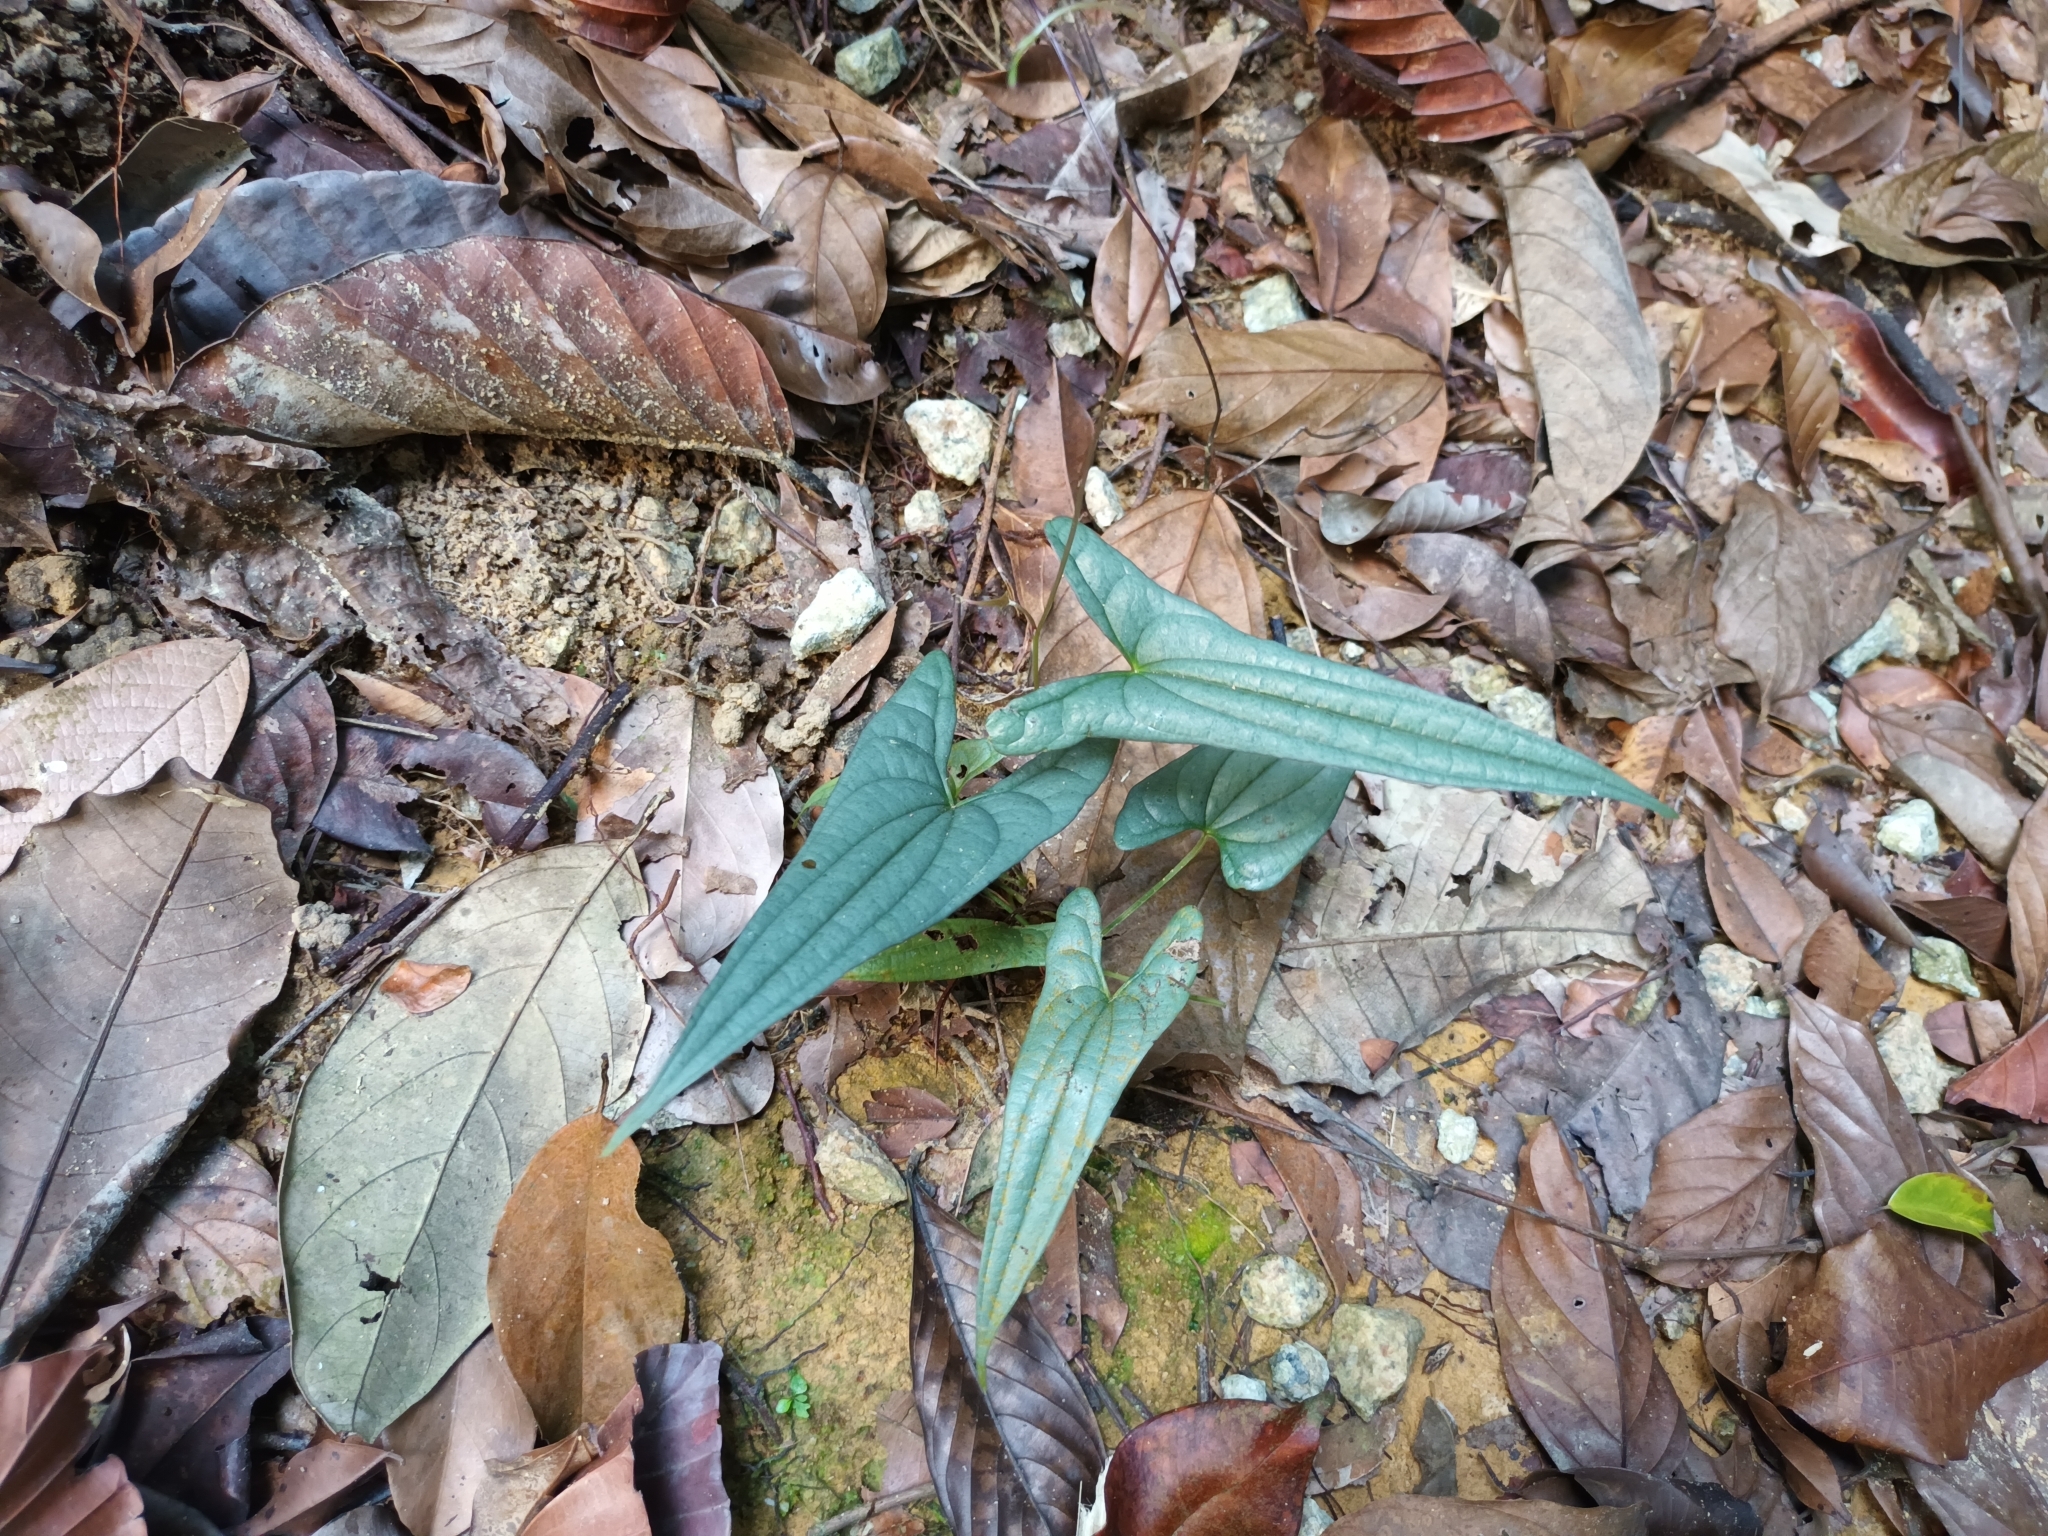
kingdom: Plantae
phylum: Tracheophyta
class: Liliopsida
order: Dioscoreales
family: Dioscoreaceae
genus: Dioscorea
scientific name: Dioscorea kingii
